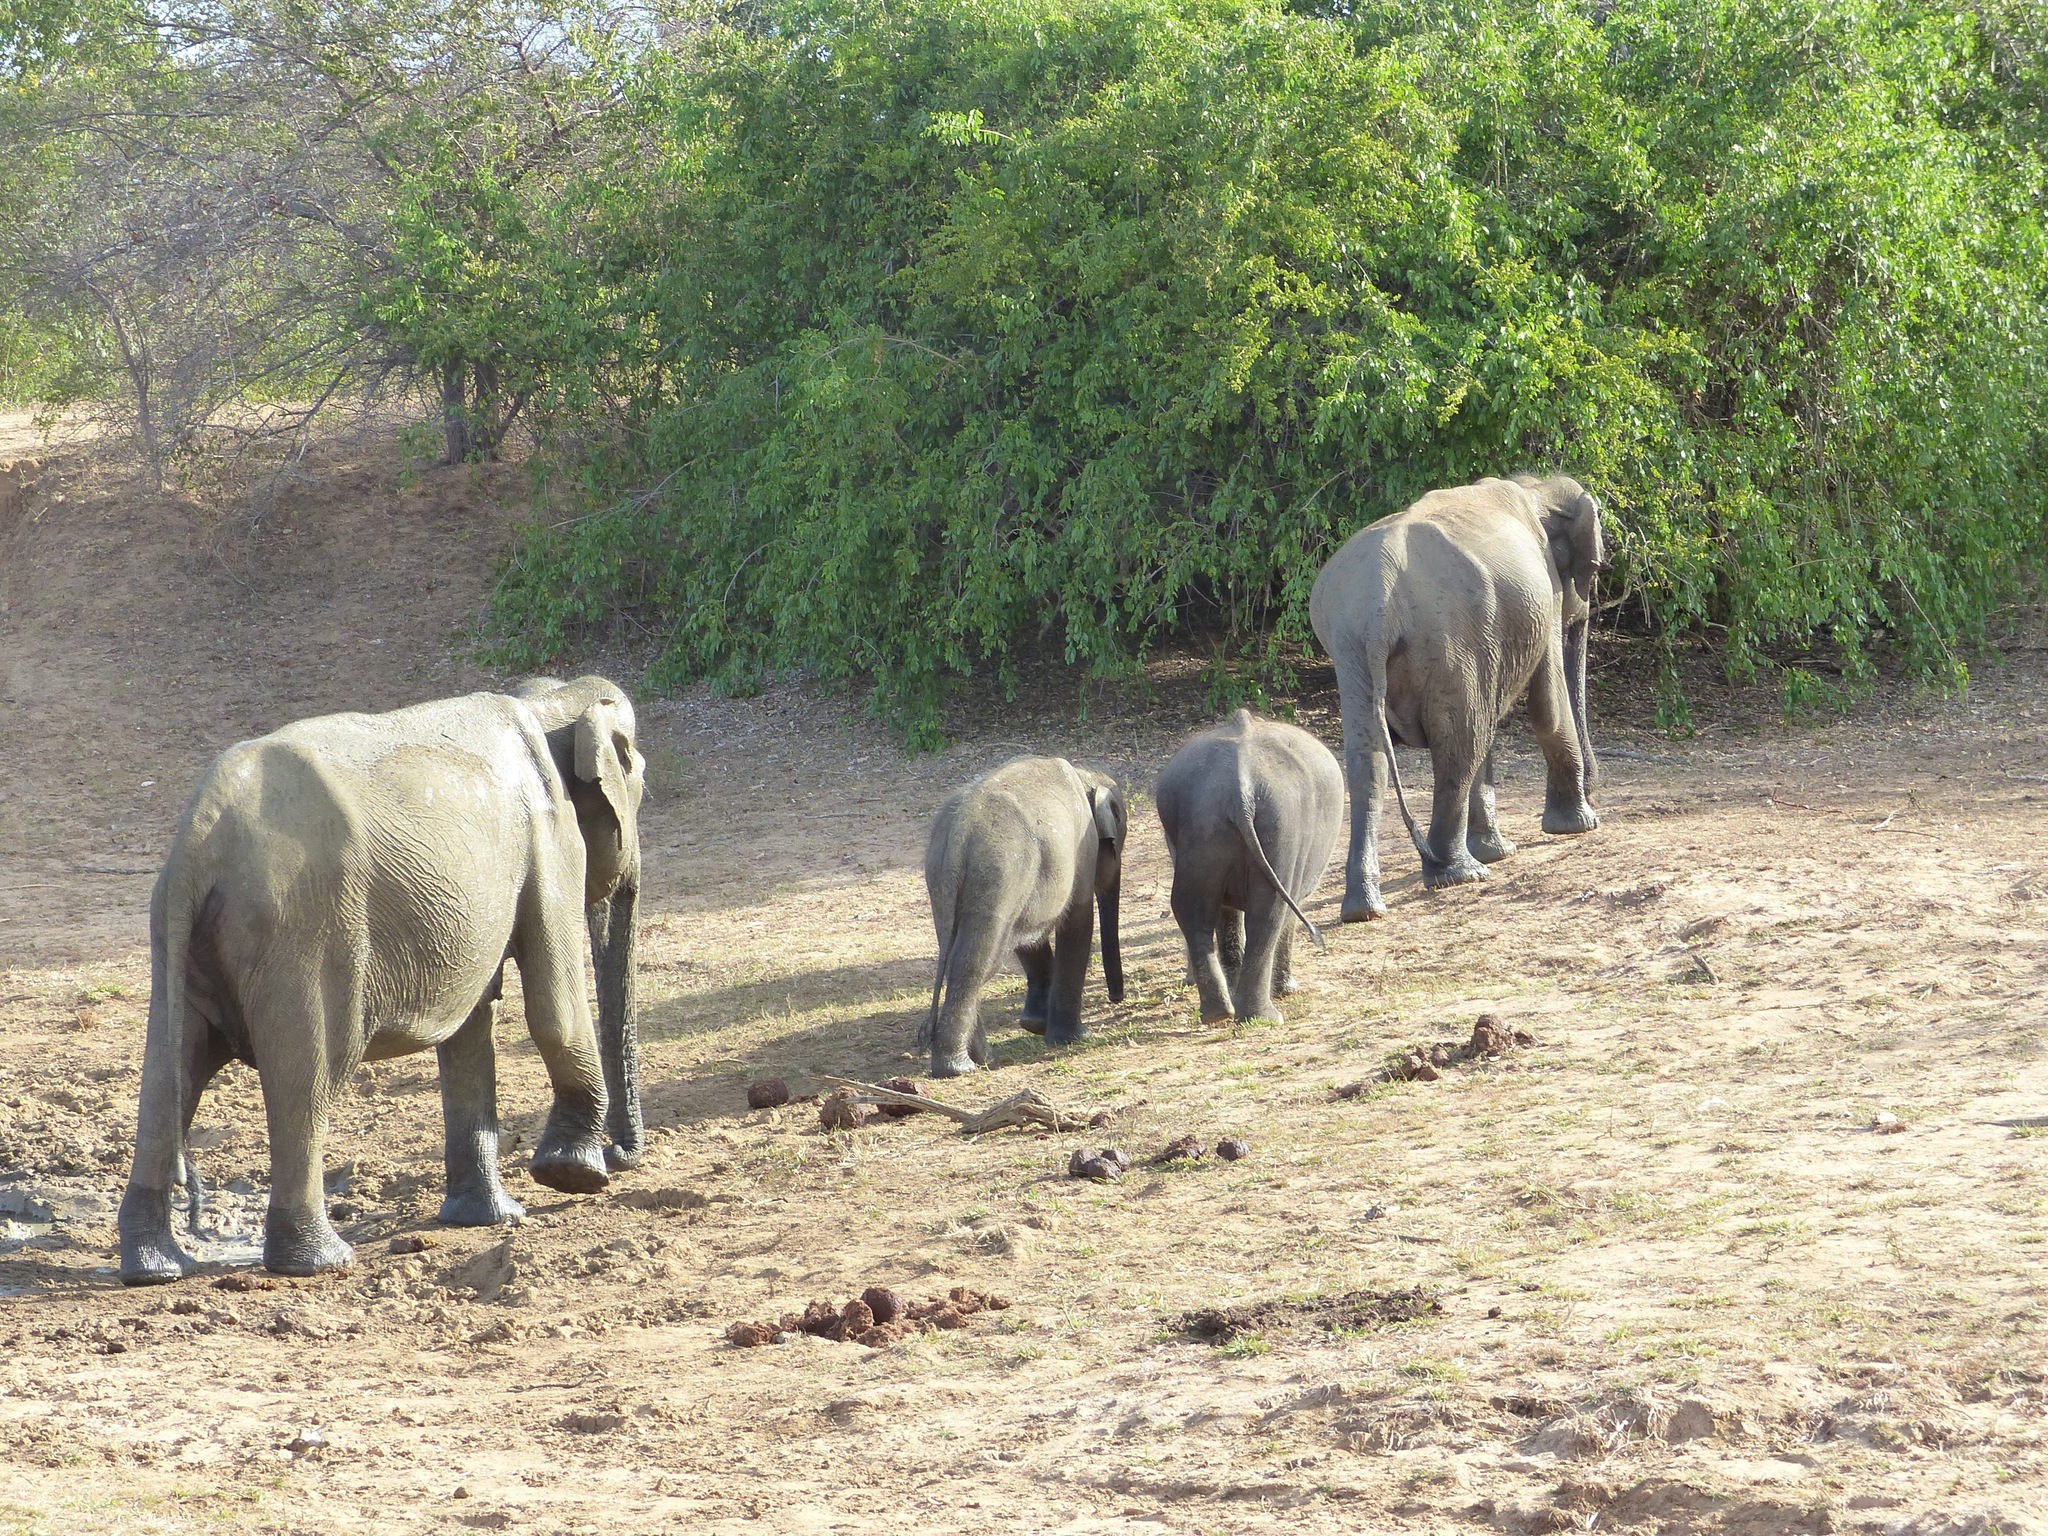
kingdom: Animalia
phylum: Chordata
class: Mammalia
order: Proboscidea
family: Elephantidae
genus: Elephas
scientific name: Elephas maximus
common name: Asian elephant
